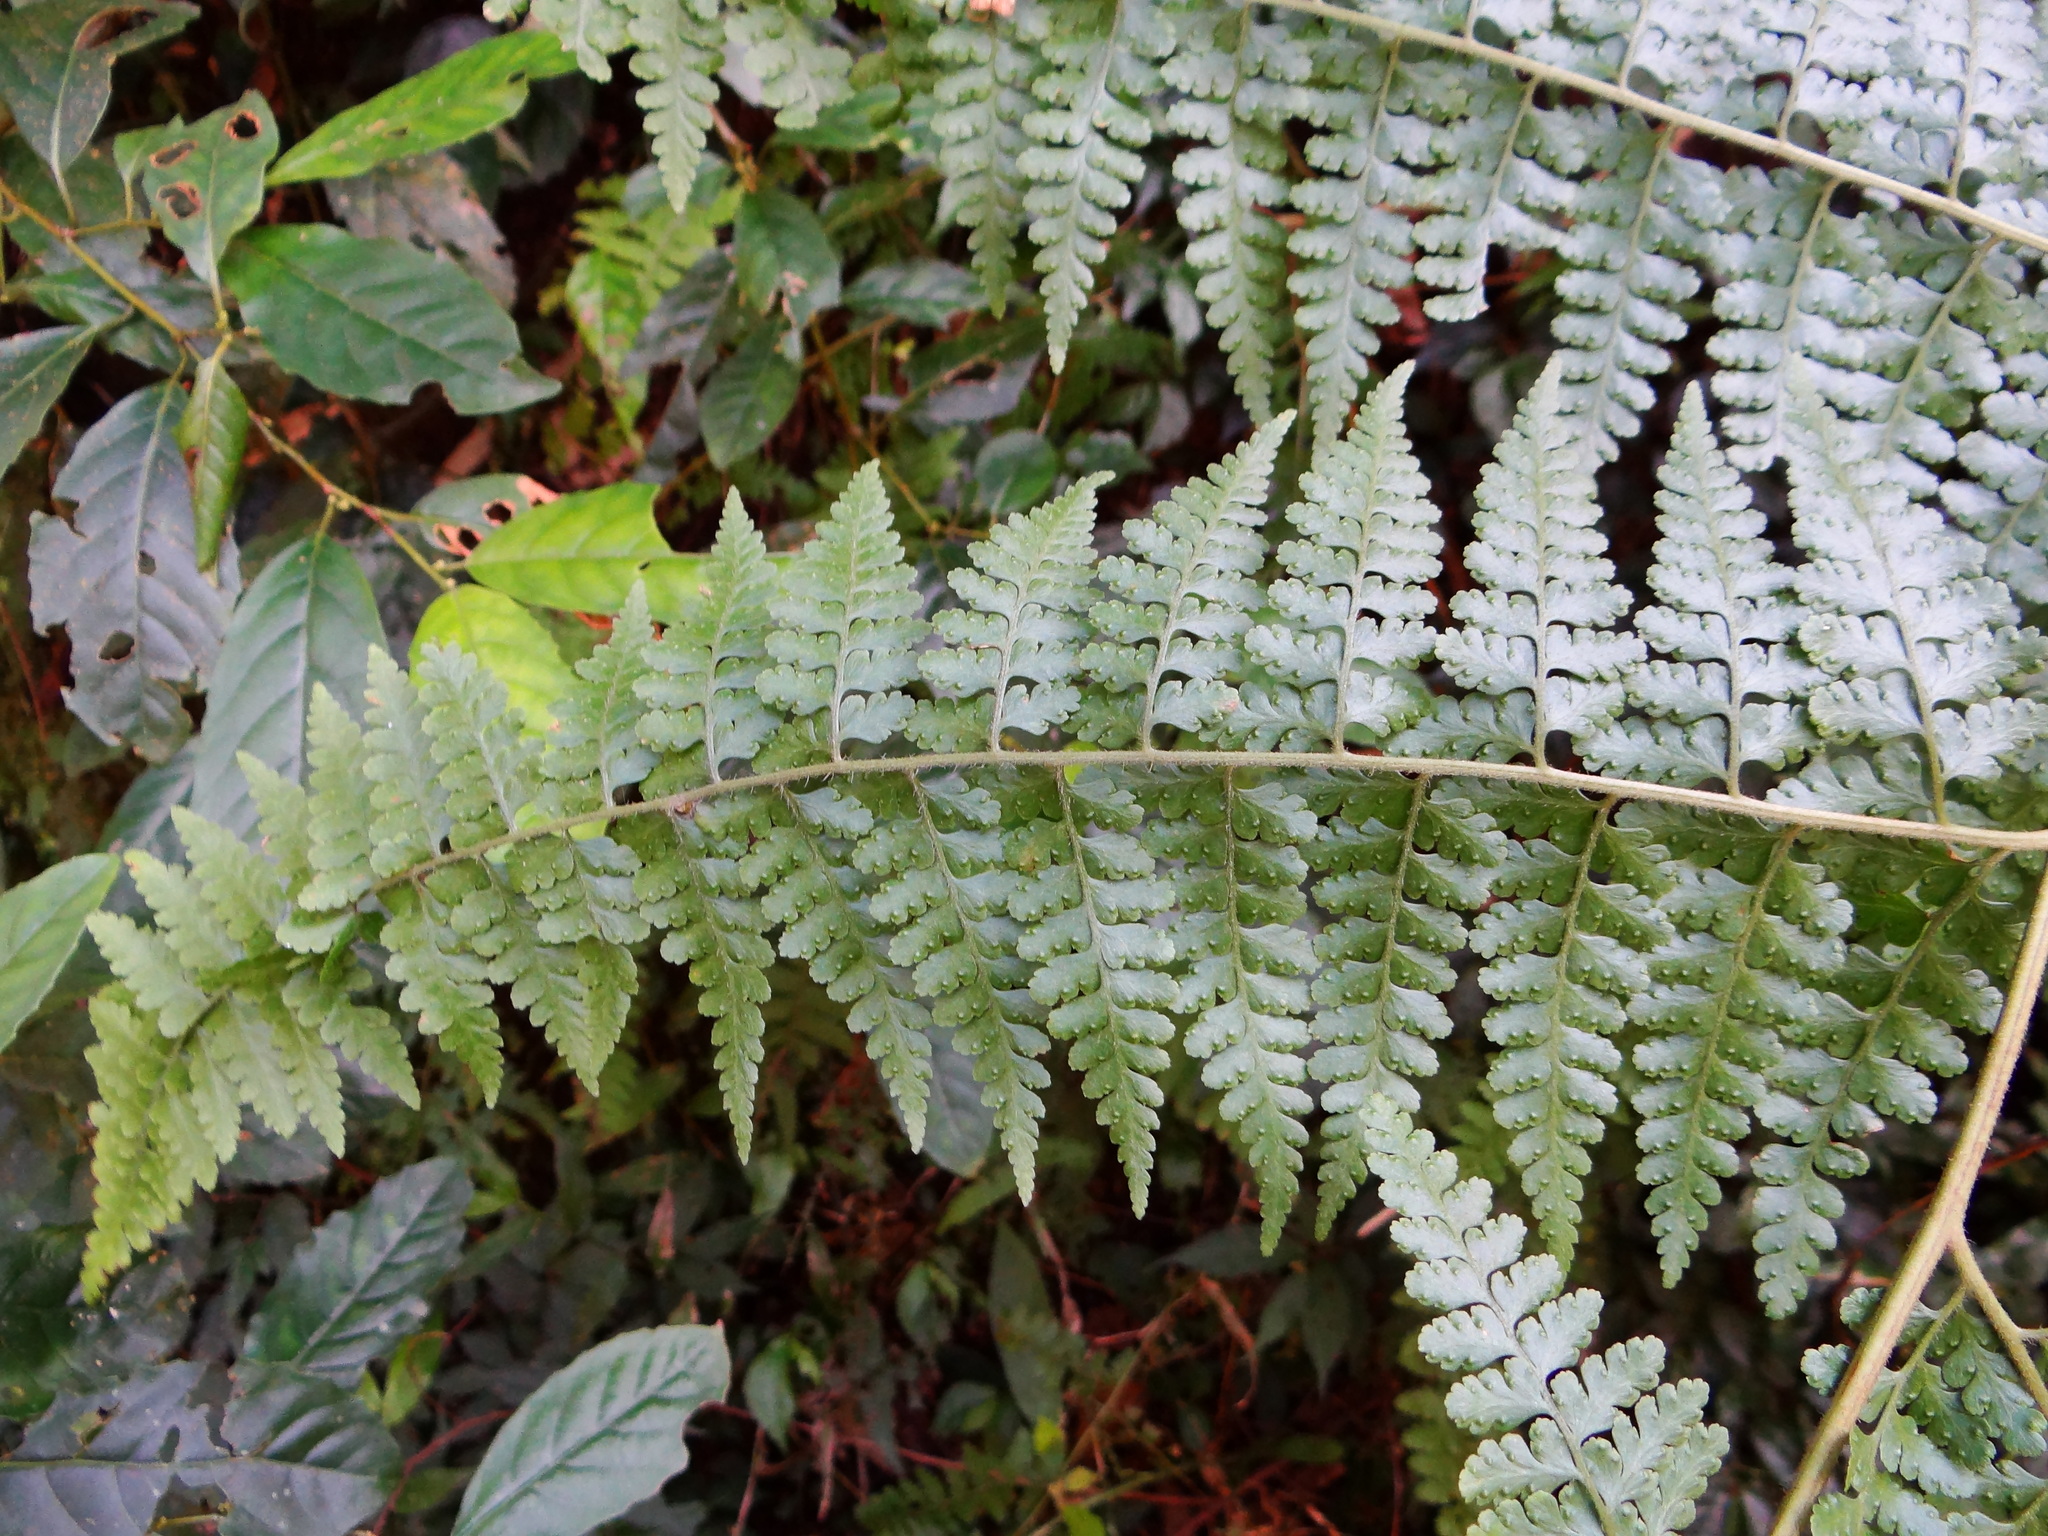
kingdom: Plantae
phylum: Tracheophyta
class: Polypodiopsida
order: Polypodiales
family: Dennstaedtiaceae
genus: Microlepia
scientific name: Microlepia speluncae
